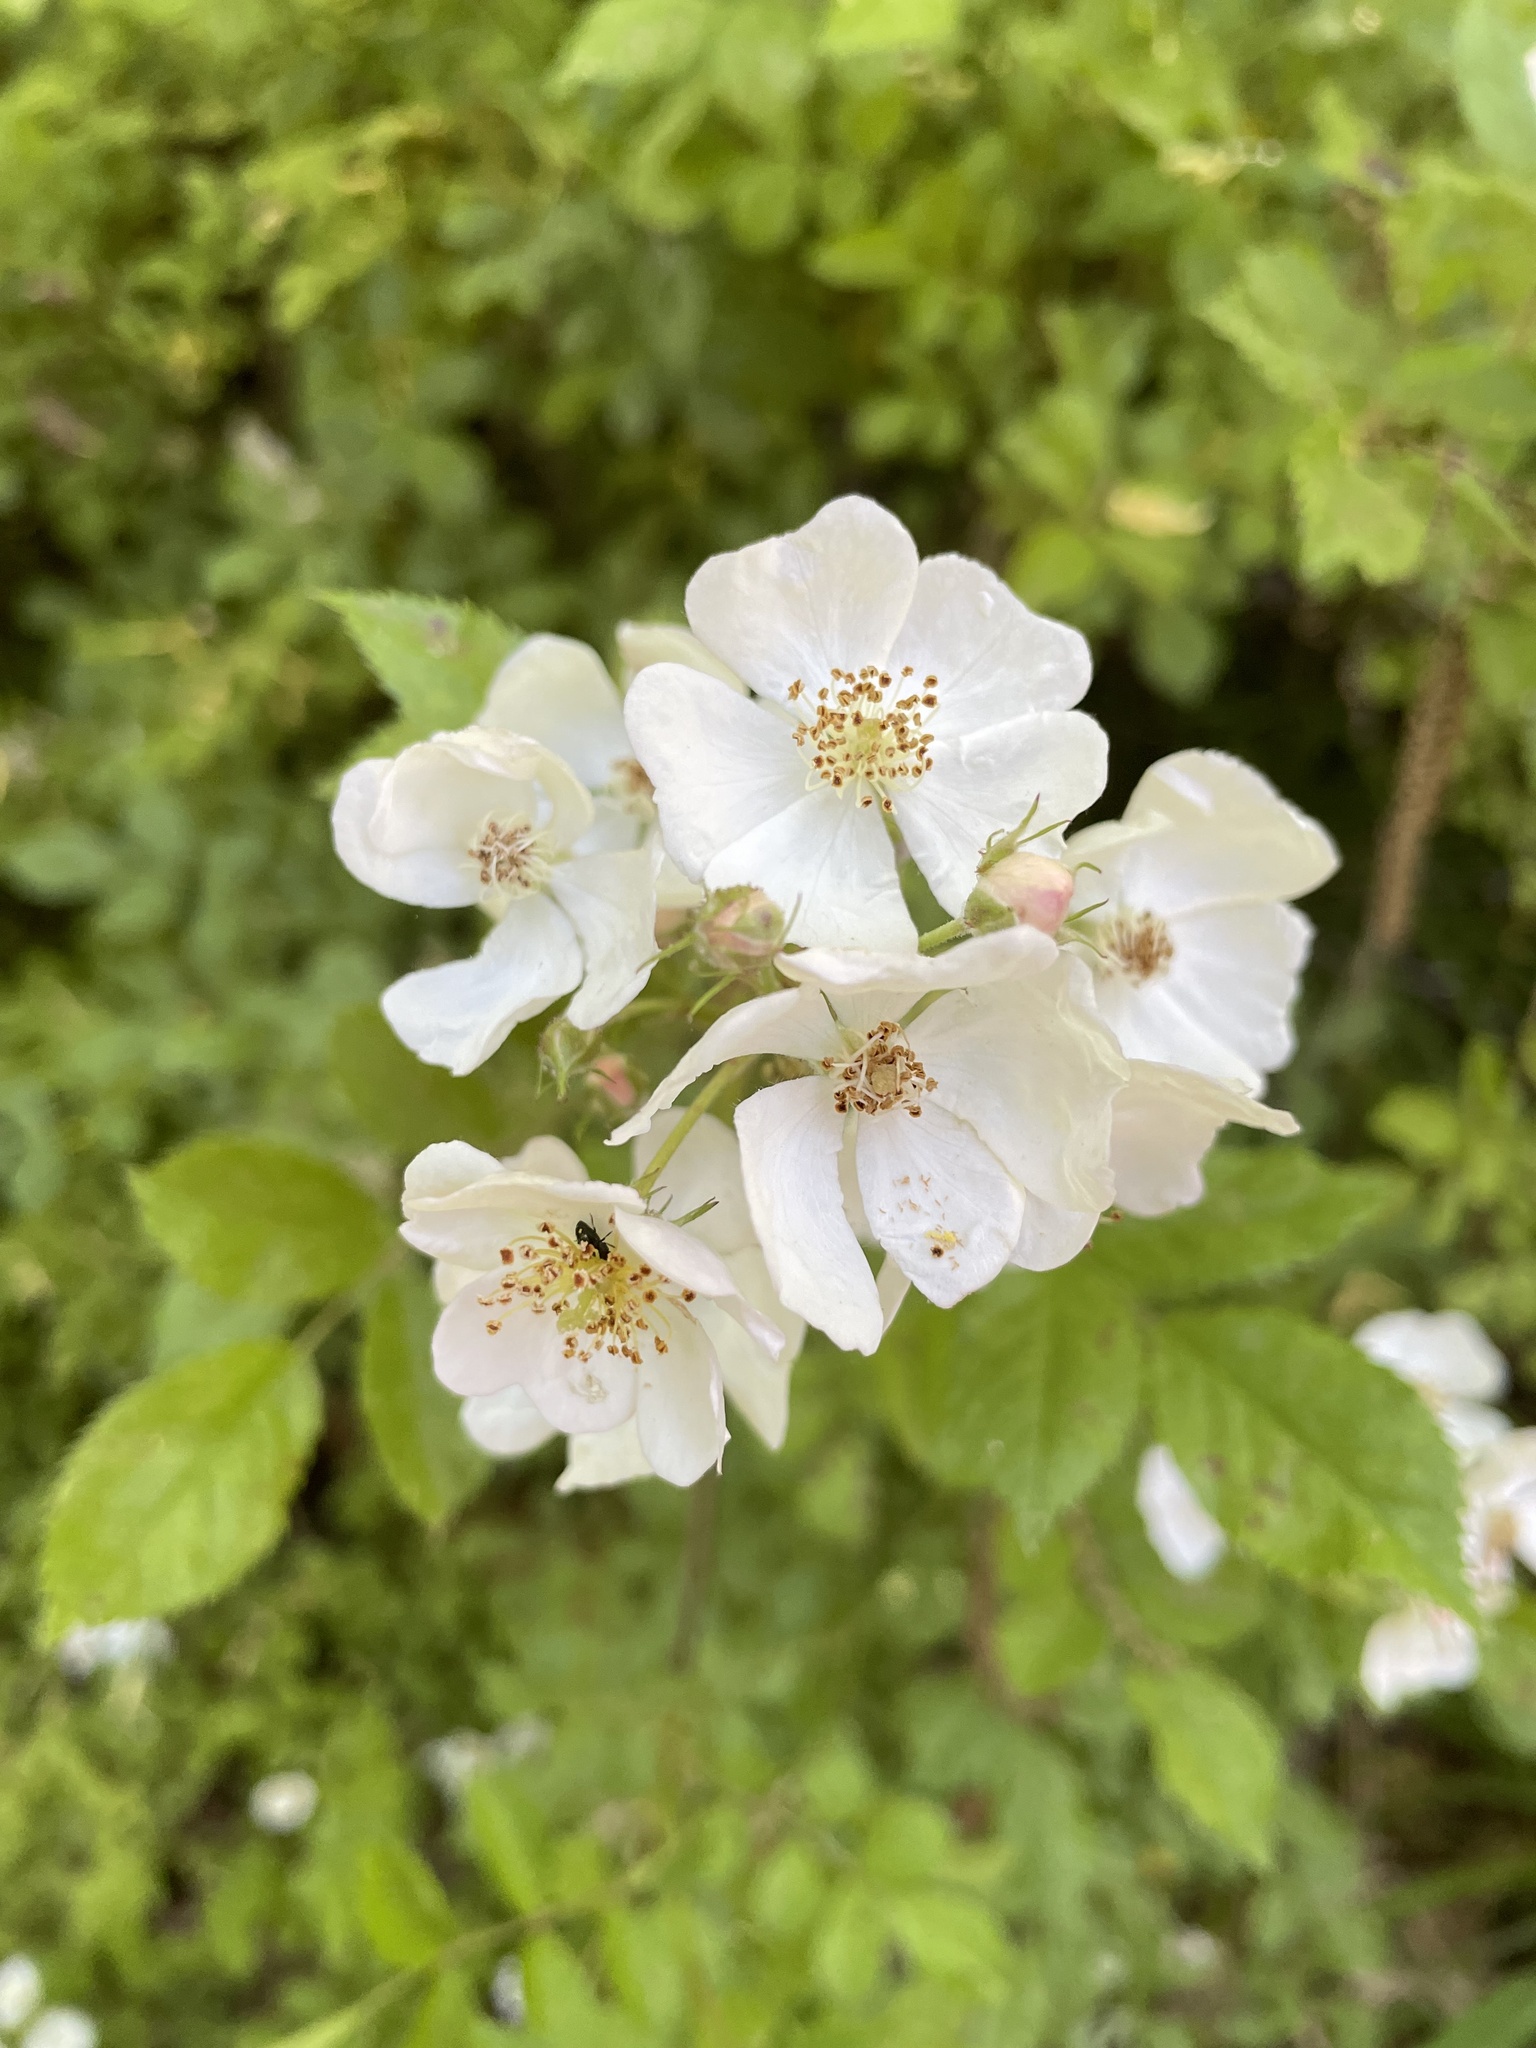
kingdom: Plantae
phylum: Tracheophyta
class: Magnoliopsida
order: Rosales
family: Rosaceae
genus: Rosa
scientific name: Rosa multiflora
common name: Multiflora rose
